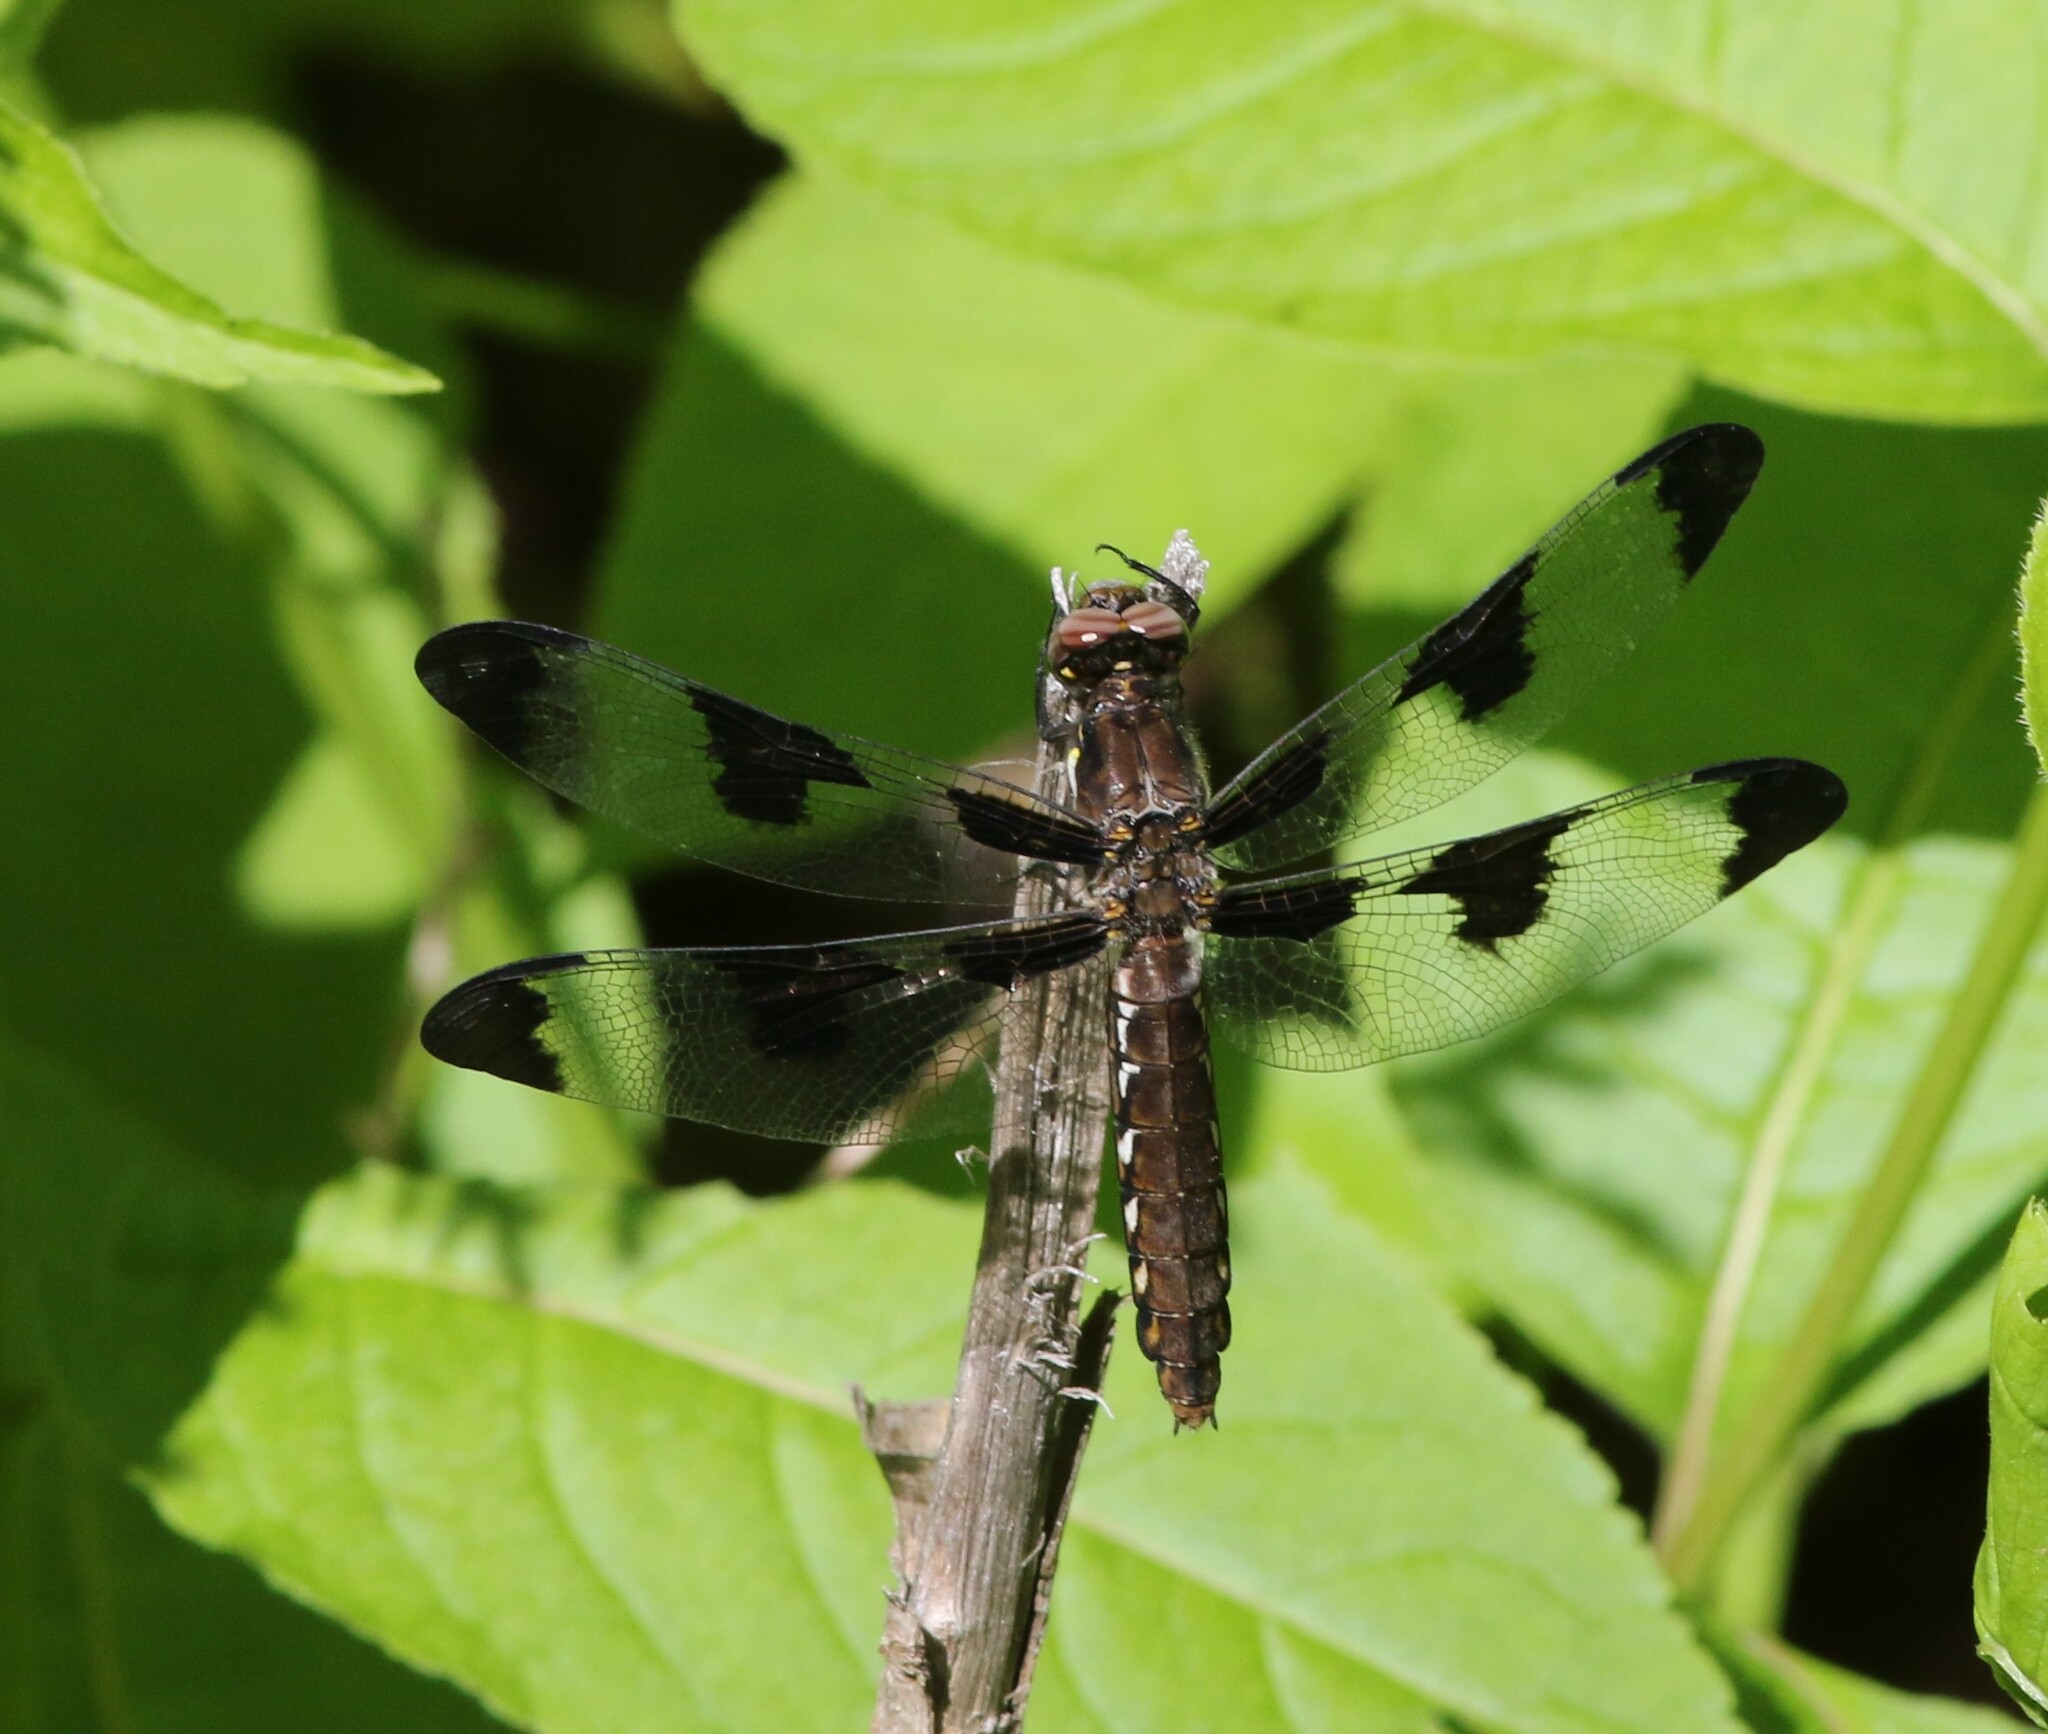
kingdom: Animalia
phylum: Arthropoda
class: Insecta
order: Odonata
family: Libellulidae
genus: Plathemis
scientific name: Plathemis lydia
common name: Common whitetail
